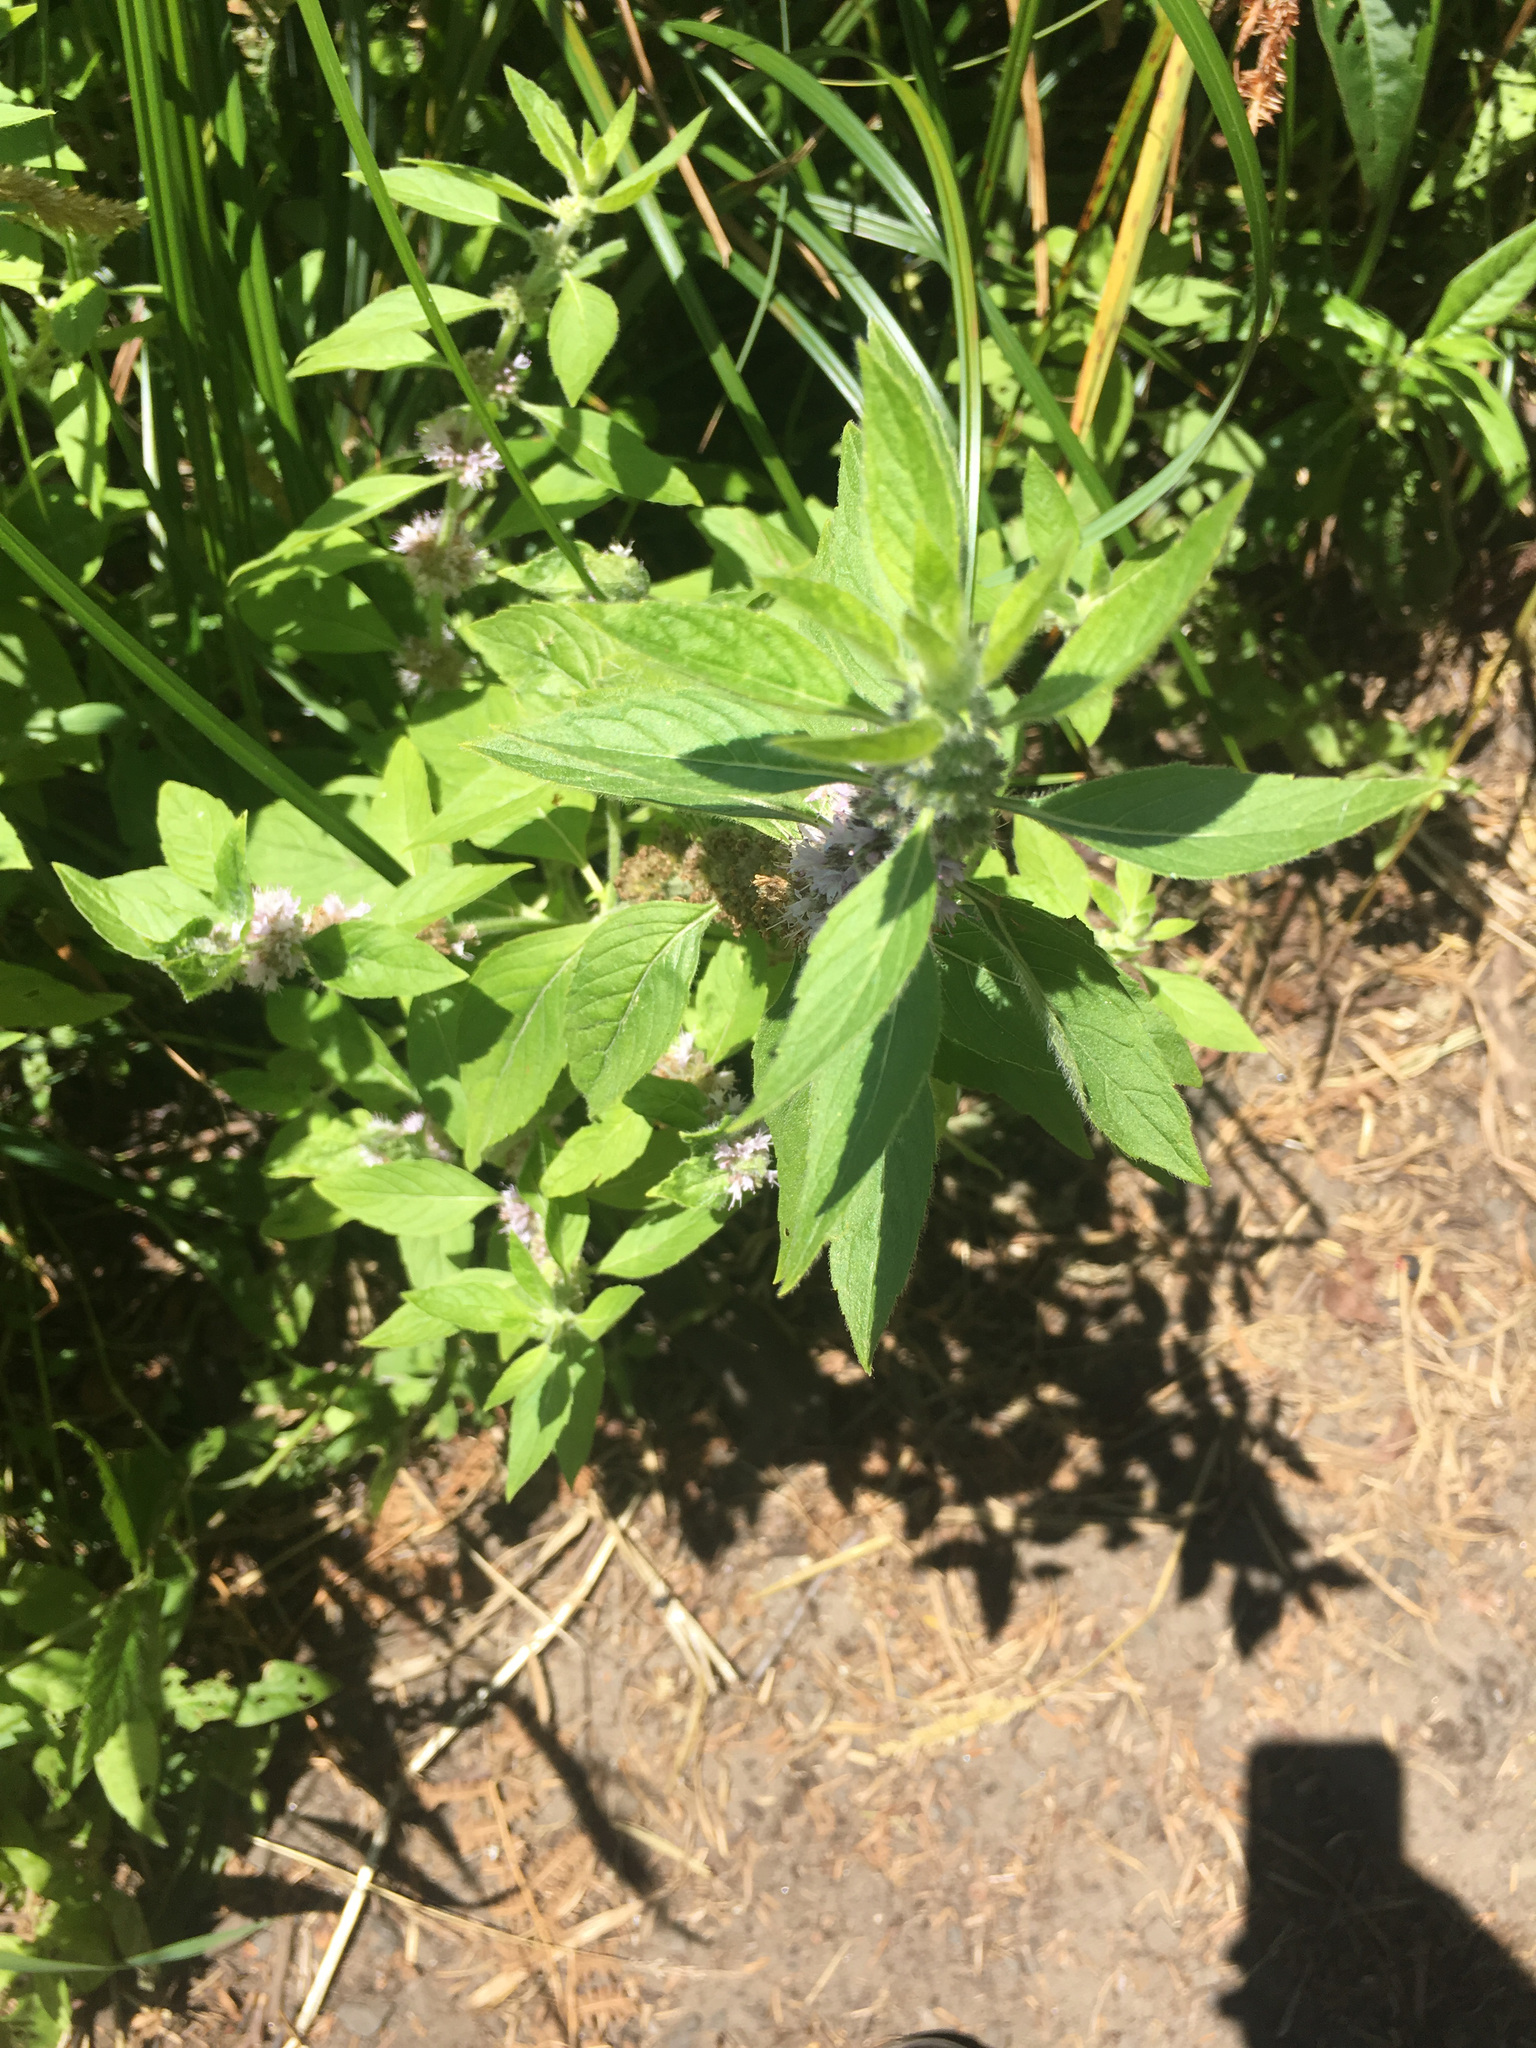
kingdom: Plantae
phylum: Tracheophyta
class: Magnoliopsida
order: Lamiales
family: Lamiaceae
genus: Mentha
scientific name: Mentha canadensis
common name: American corn mint
